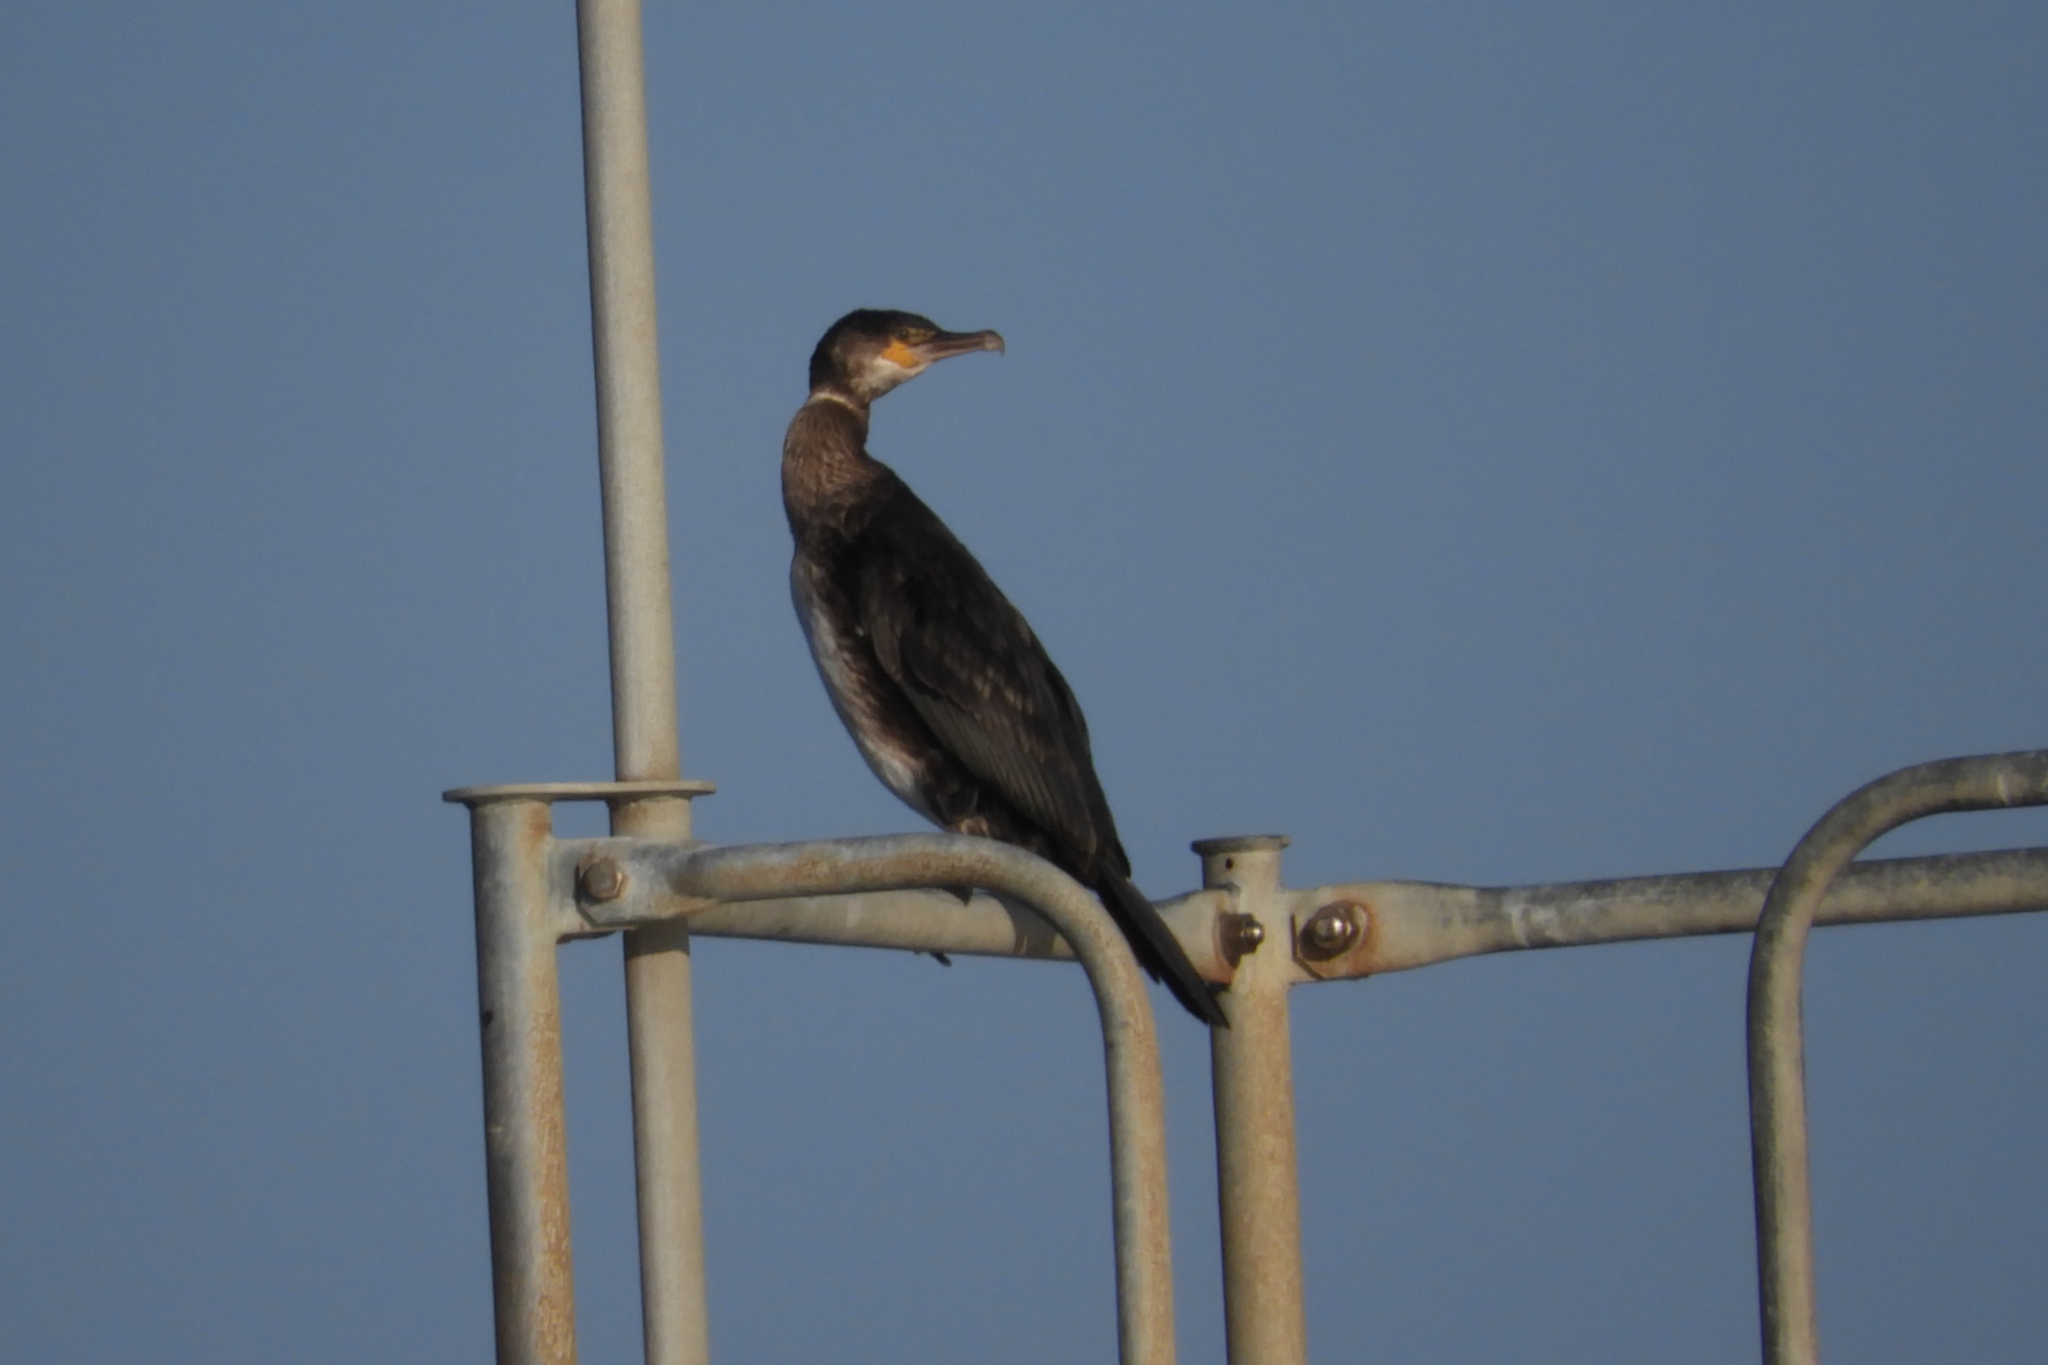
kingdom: Animalia
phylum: Chordata
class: Aves
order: Suliformes
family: Phalacrocoracidae
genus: Phalacrocorax
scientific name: Phalacrocorax carbo
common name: Great cormorant
